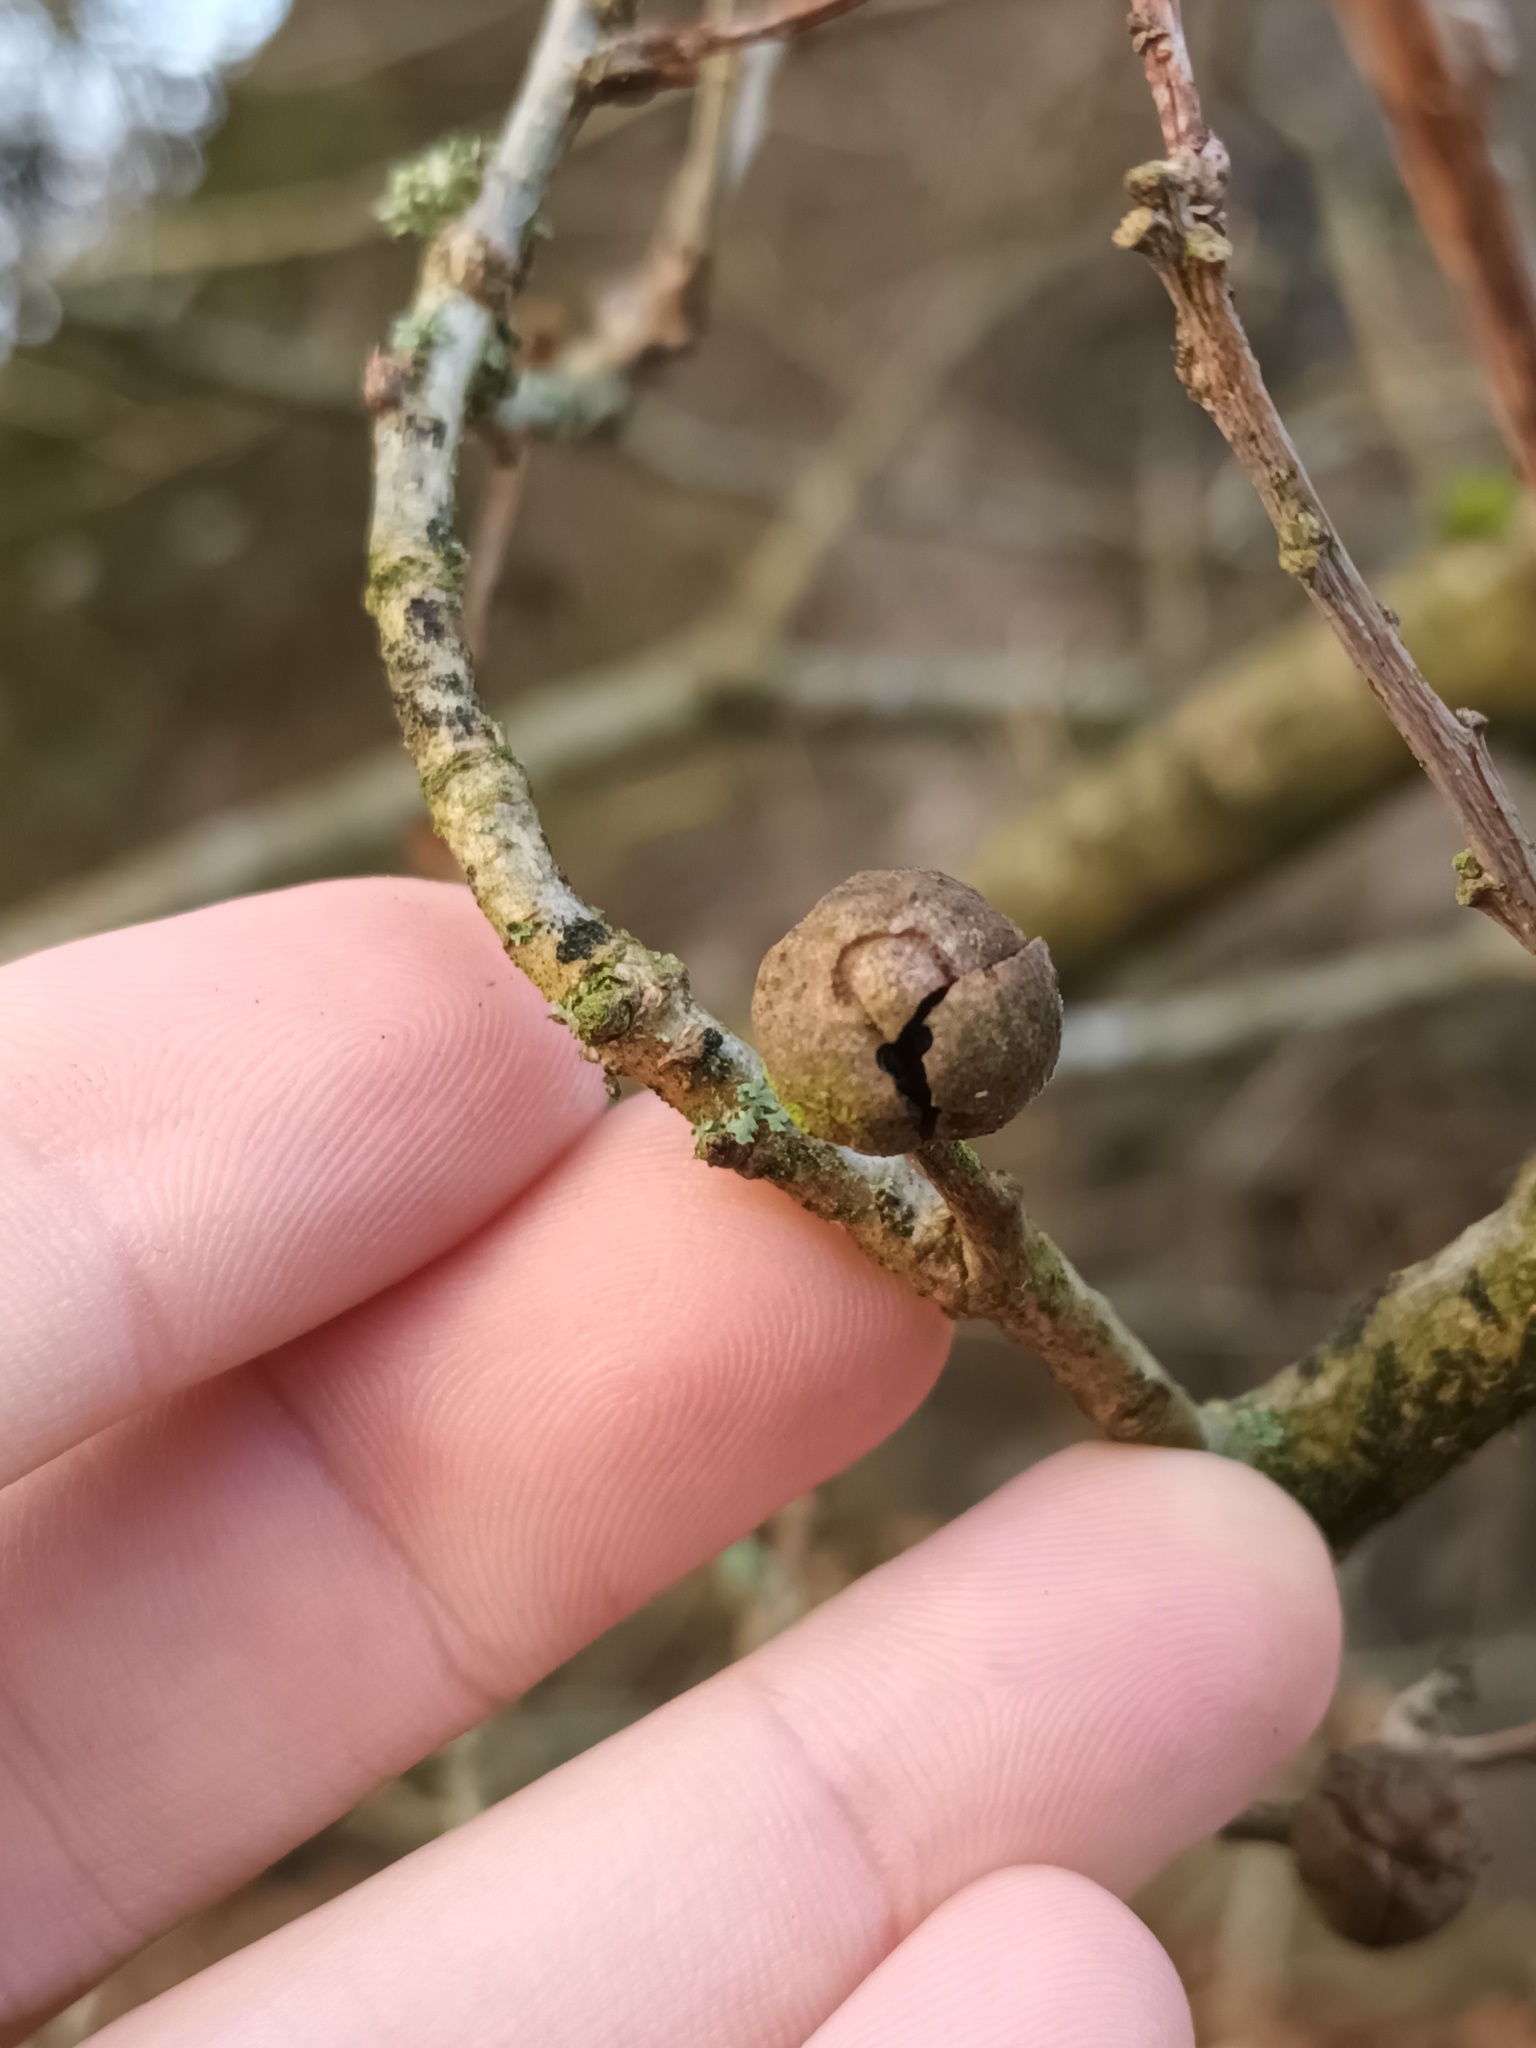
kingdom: Animalia
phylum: Arthropoda
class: Insecta
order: Hymenoptera
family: Cynipidae
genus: Andricus
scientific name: Andricus lignicolus
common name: Cola-nut gall
